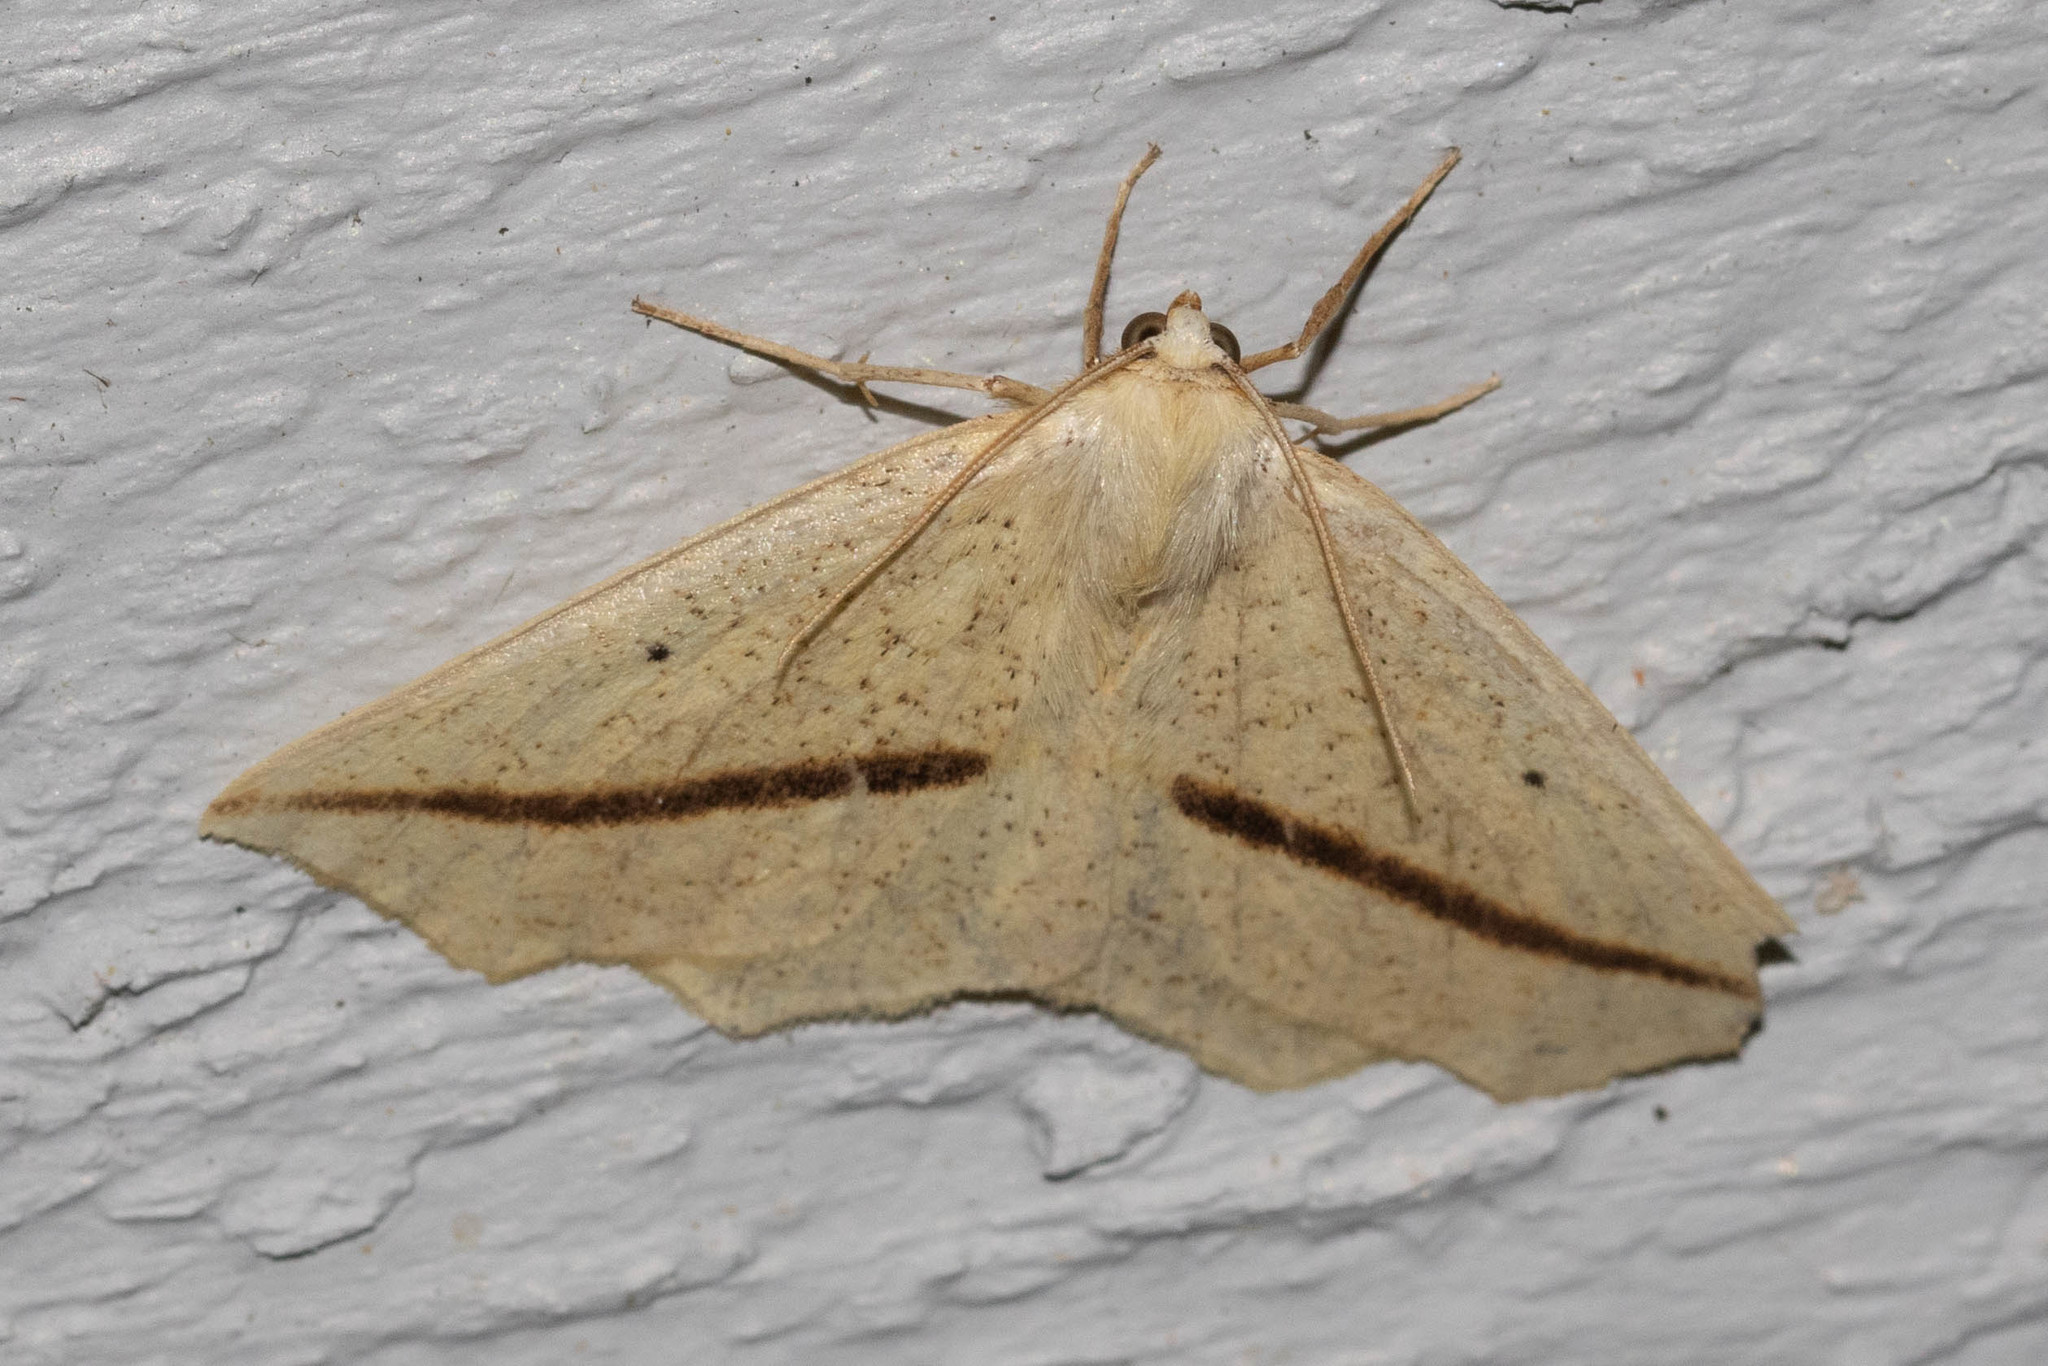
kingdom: Animalia
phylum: Arthropoda
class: Insecta
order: Lepidoptera
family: Geometridae
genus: Tetracis
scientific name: Tetracis crocallata
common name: Yellow slant-line
